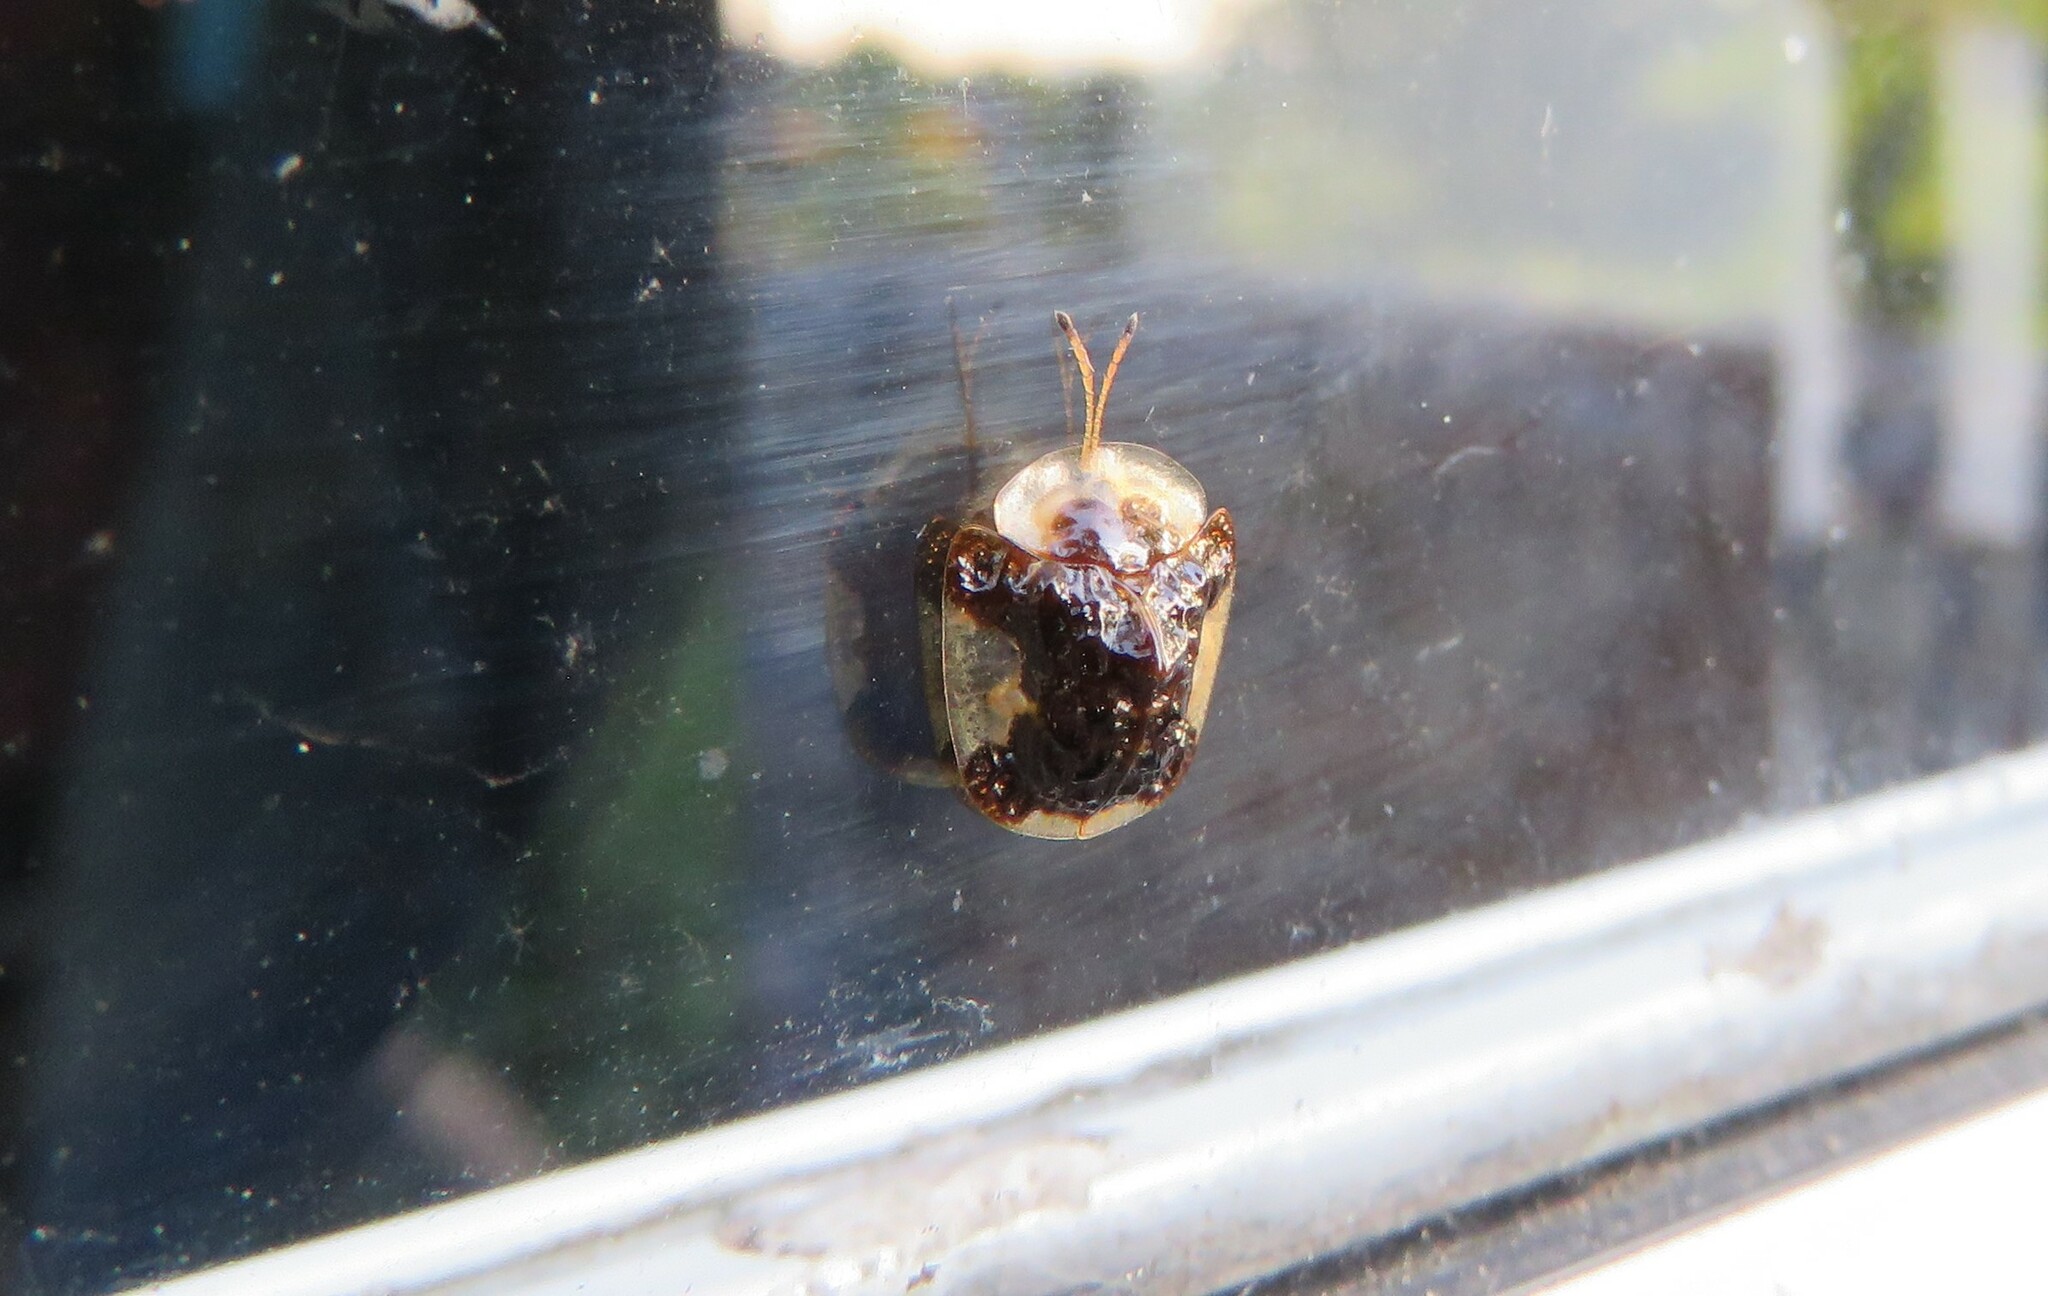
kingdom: Animalia
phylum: Arthropoda
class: Insecta
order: Coleoptera
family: Chrysomelidae
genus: Helocassis
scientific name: Helocassis clavata
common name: Clavate tortoise beetle
